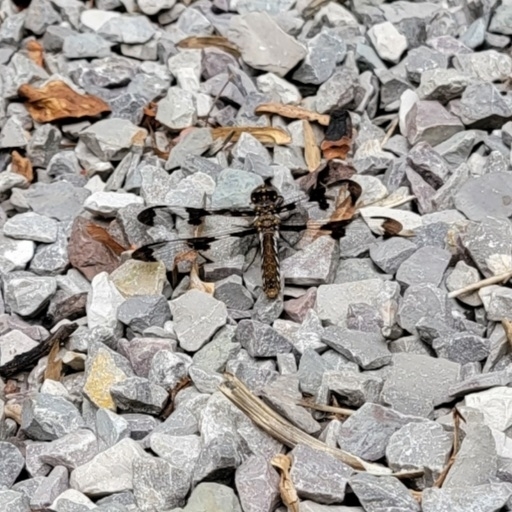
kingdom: Animalia
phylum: Arthropoda
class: Insecta
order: Odonata
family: Libellulidae
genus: Plathemis
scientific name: Plathemis lydia
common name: Common whitetail
